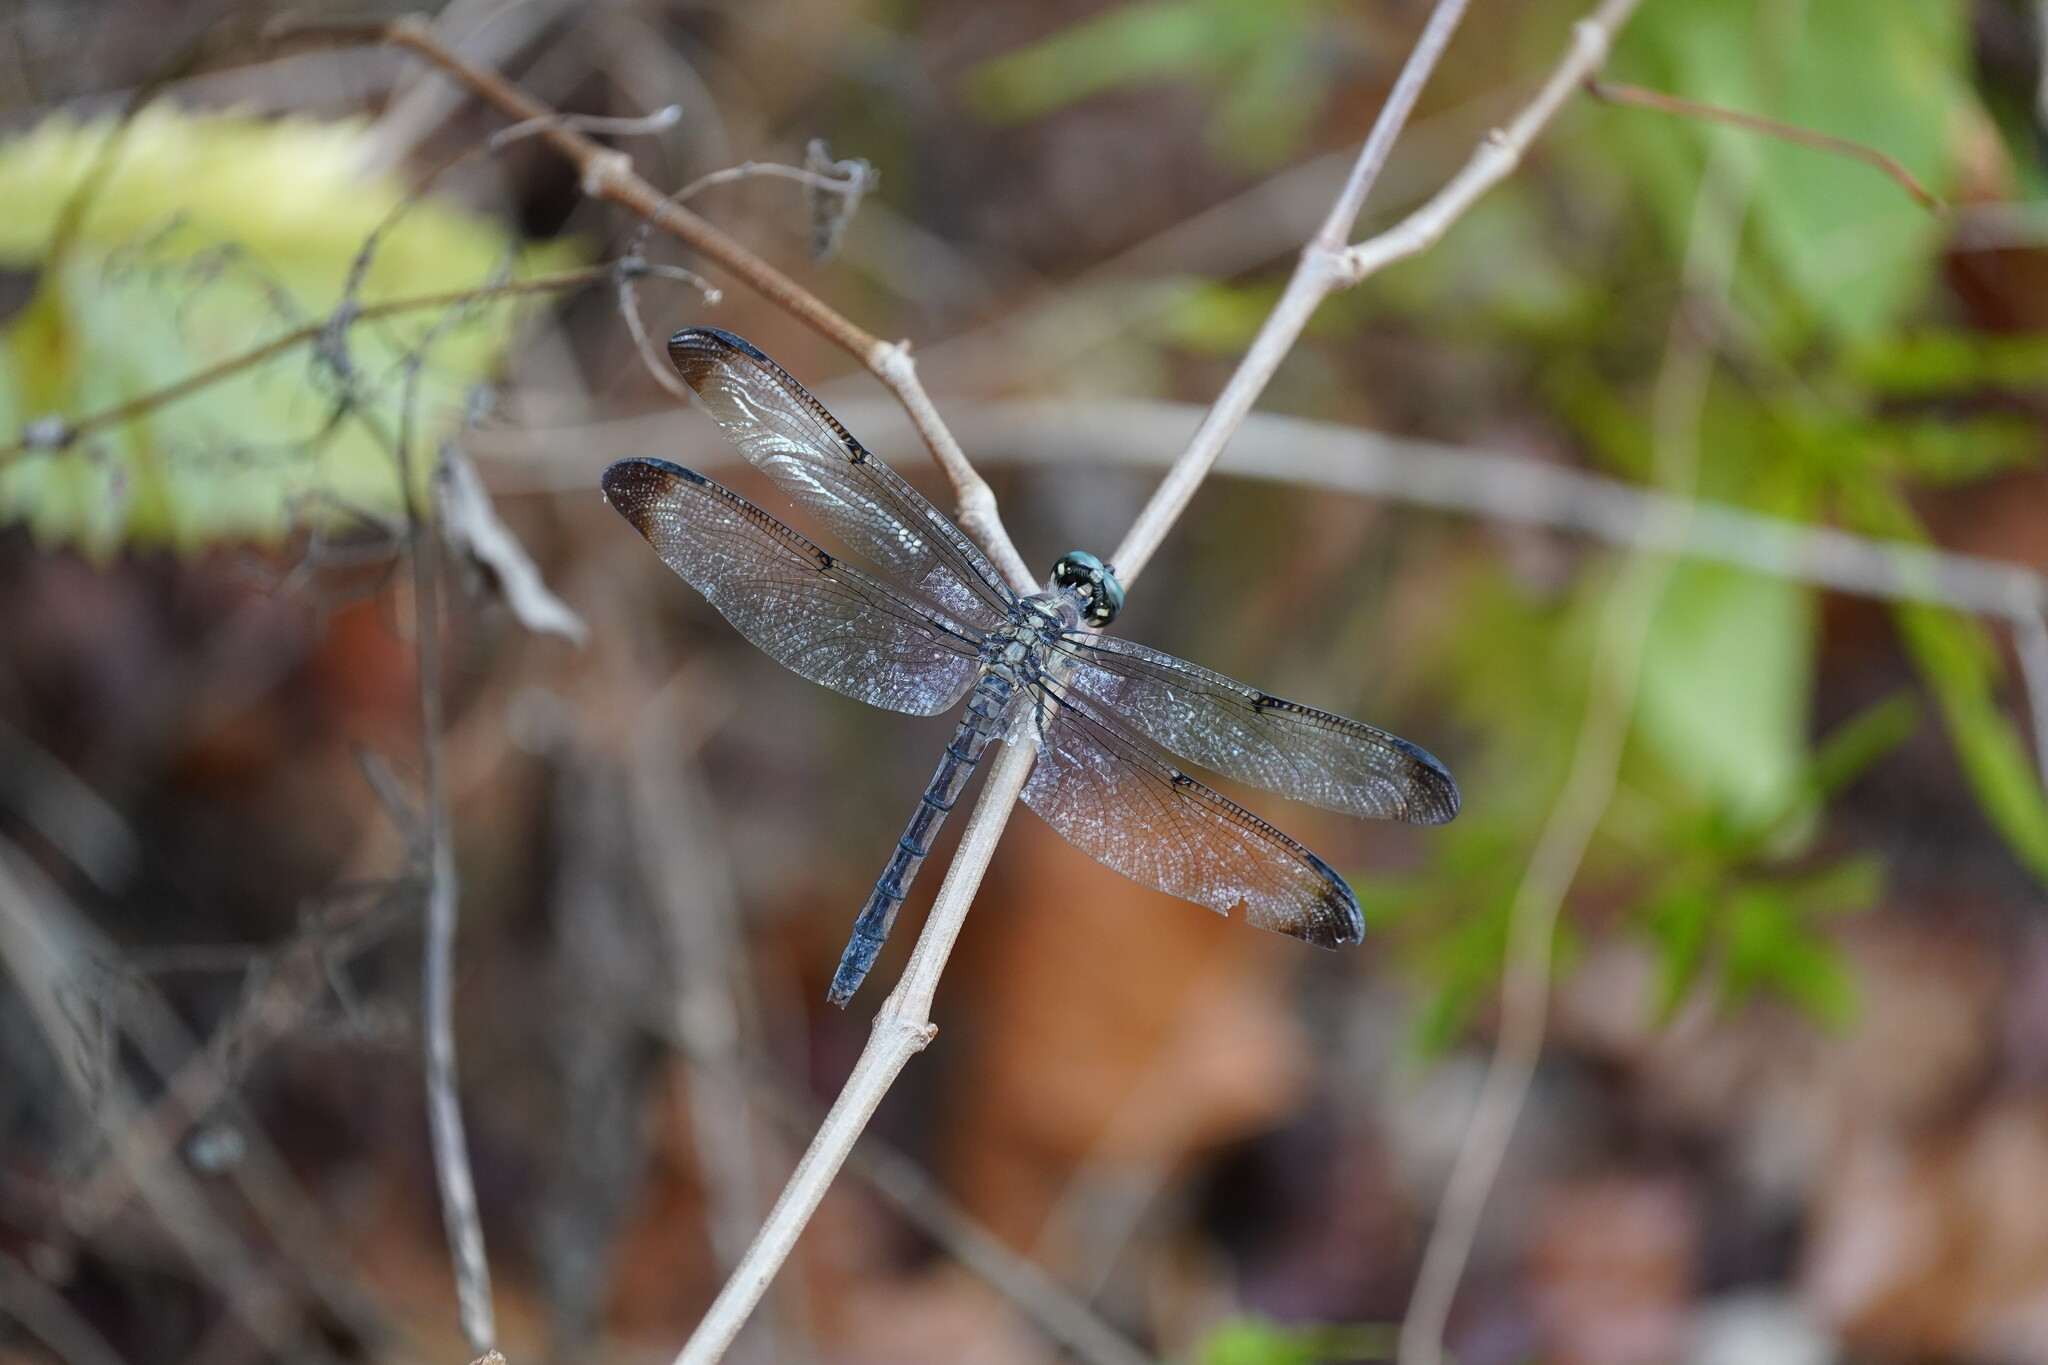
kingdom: Animalia
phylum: Arthropoda
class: Insecta
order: Odonata
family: Libellulidae
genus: Libellula
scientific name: Libellula vibrans
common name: Great blue skimmer
